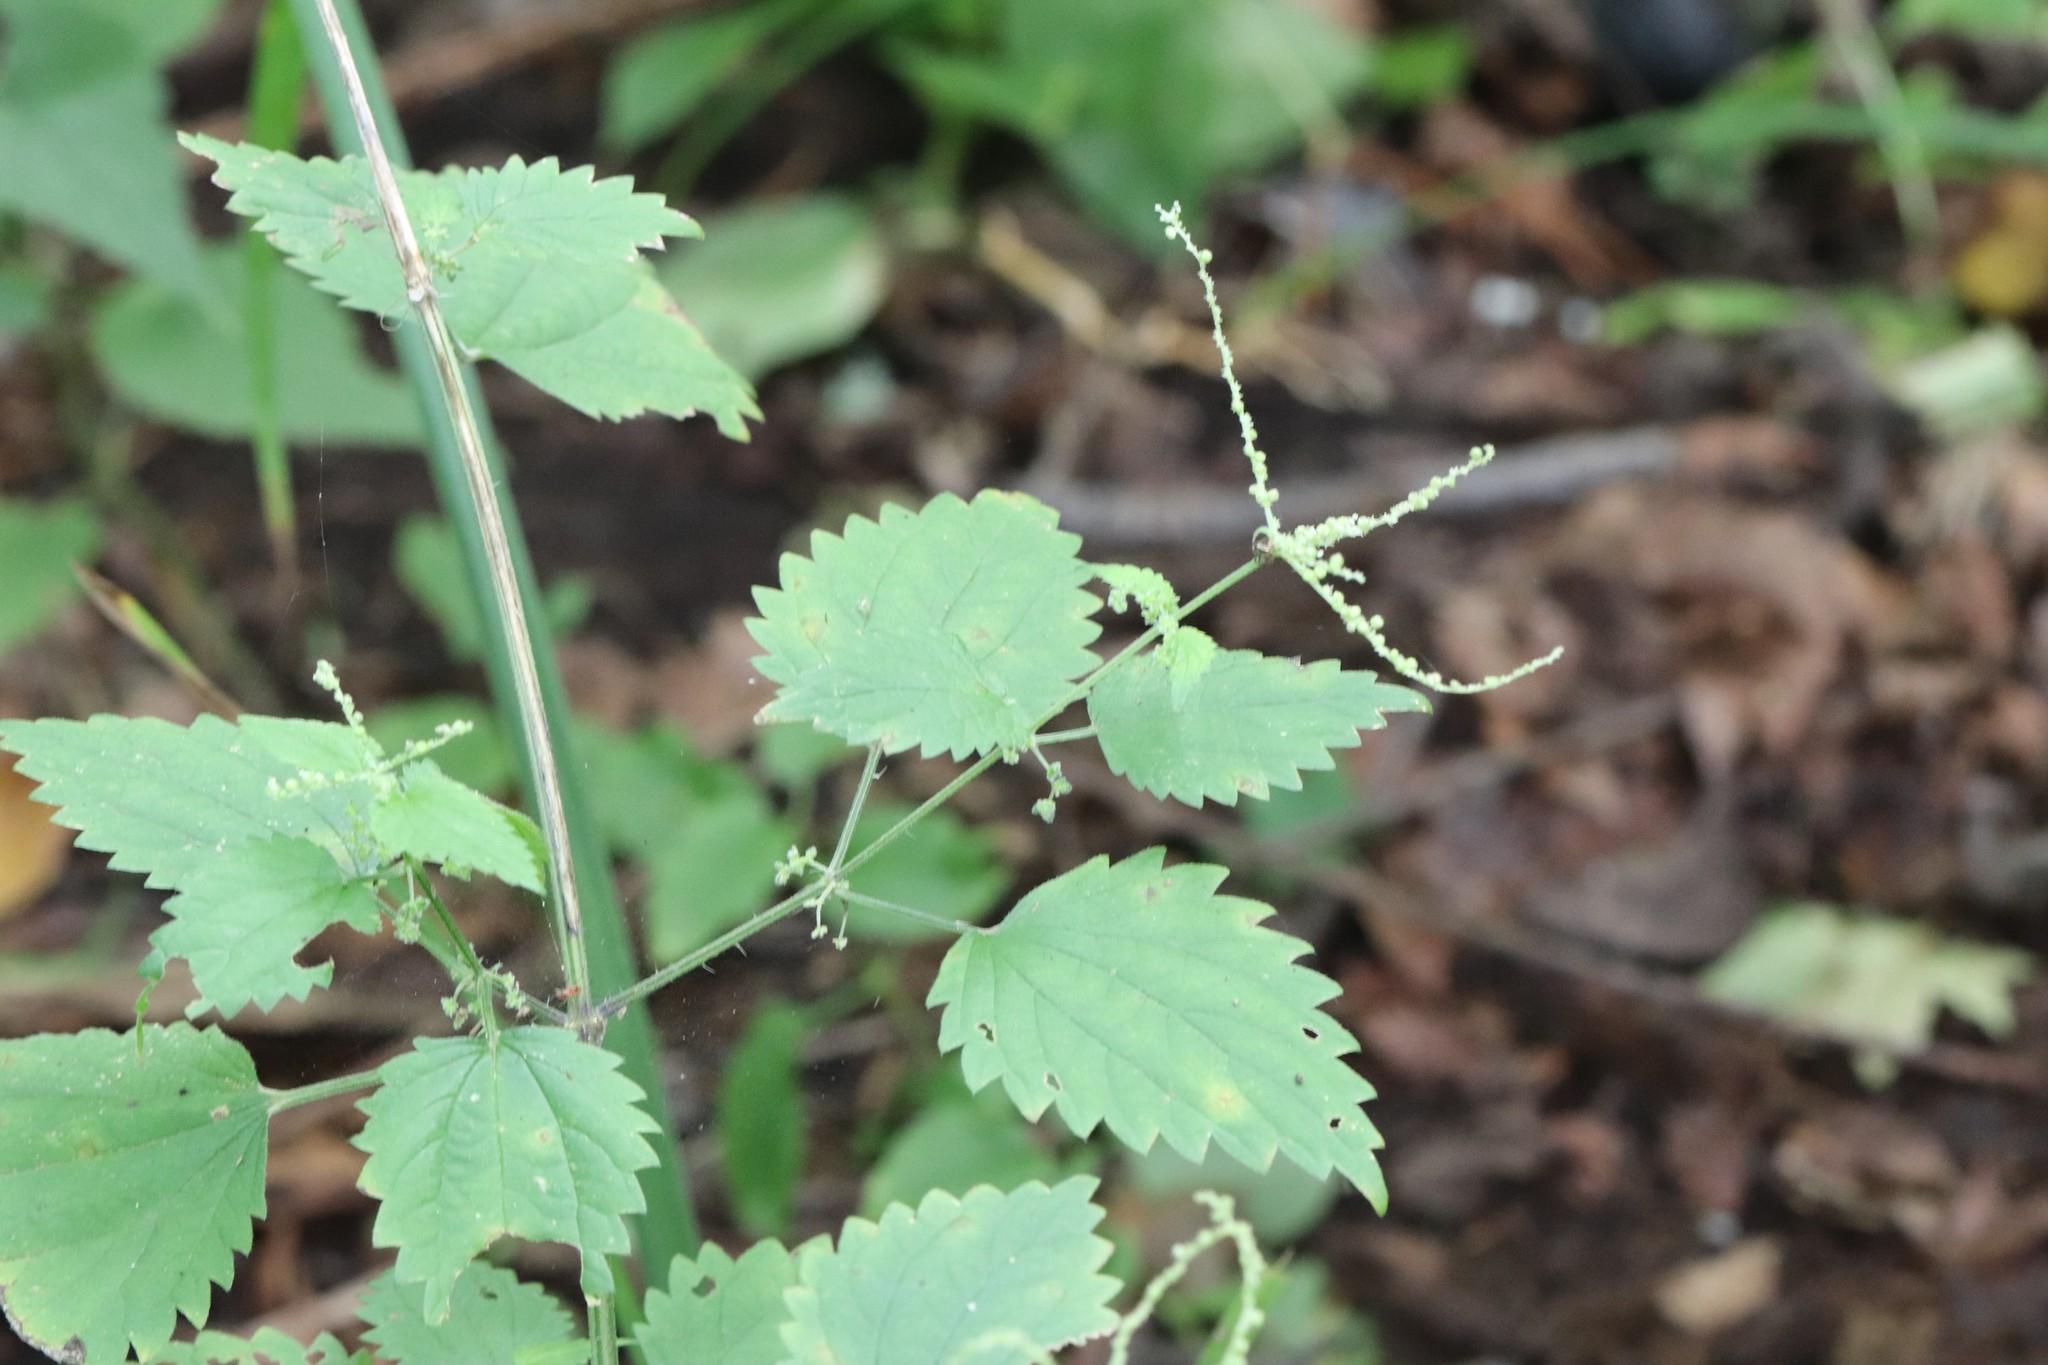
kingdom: Plantae
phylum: Tracheophyta
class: Magnoliopsida
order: Rosales
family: Urticaceae
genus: Urtica
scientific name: Urtica thunbergiana
